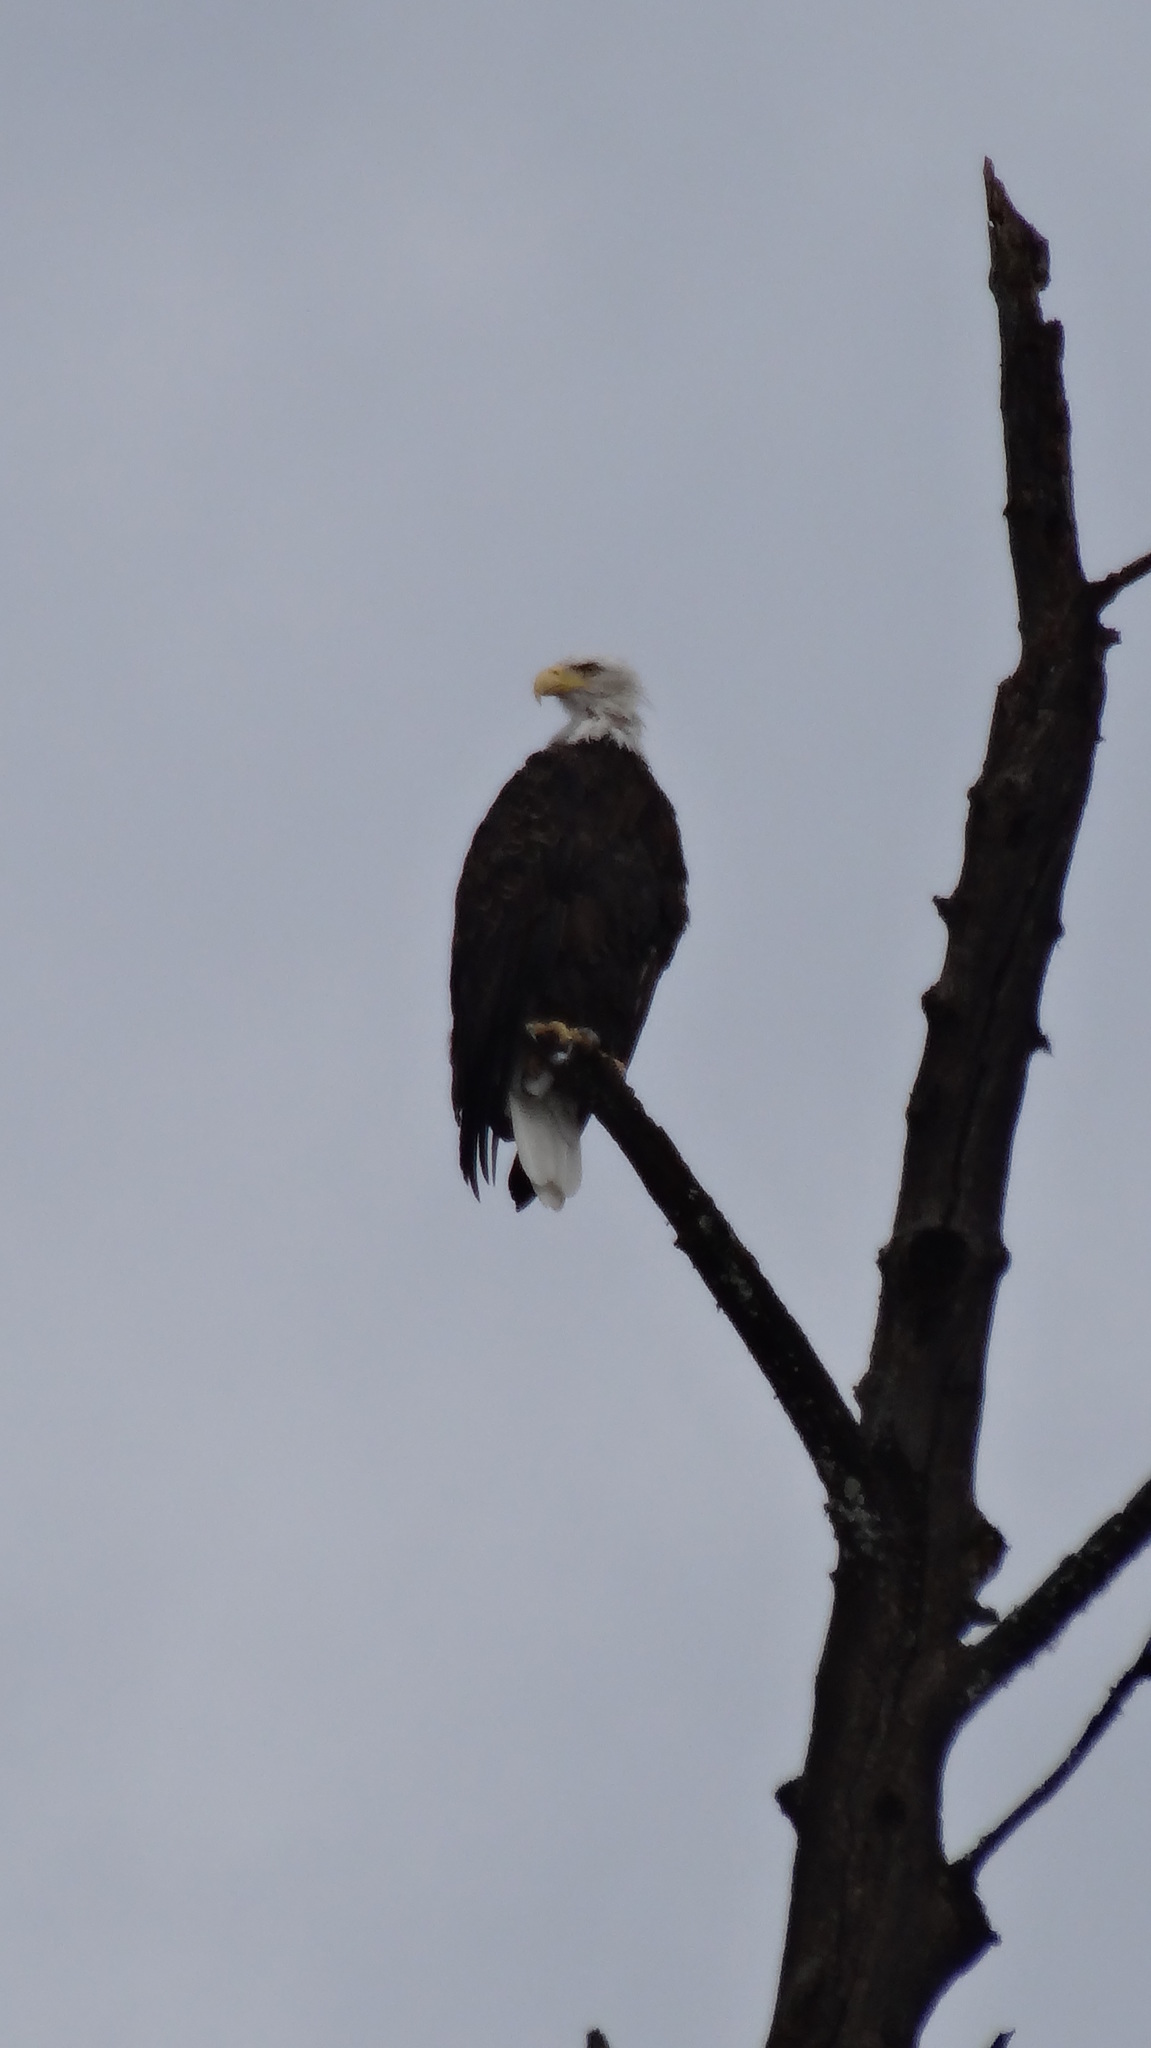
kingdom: Animalia
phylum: Chordata
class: Aves
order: Accipitriformes
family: Accipitridae
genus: Haliaeetus
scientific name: Haliaeetus leucocephalus
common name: Bald eagle
